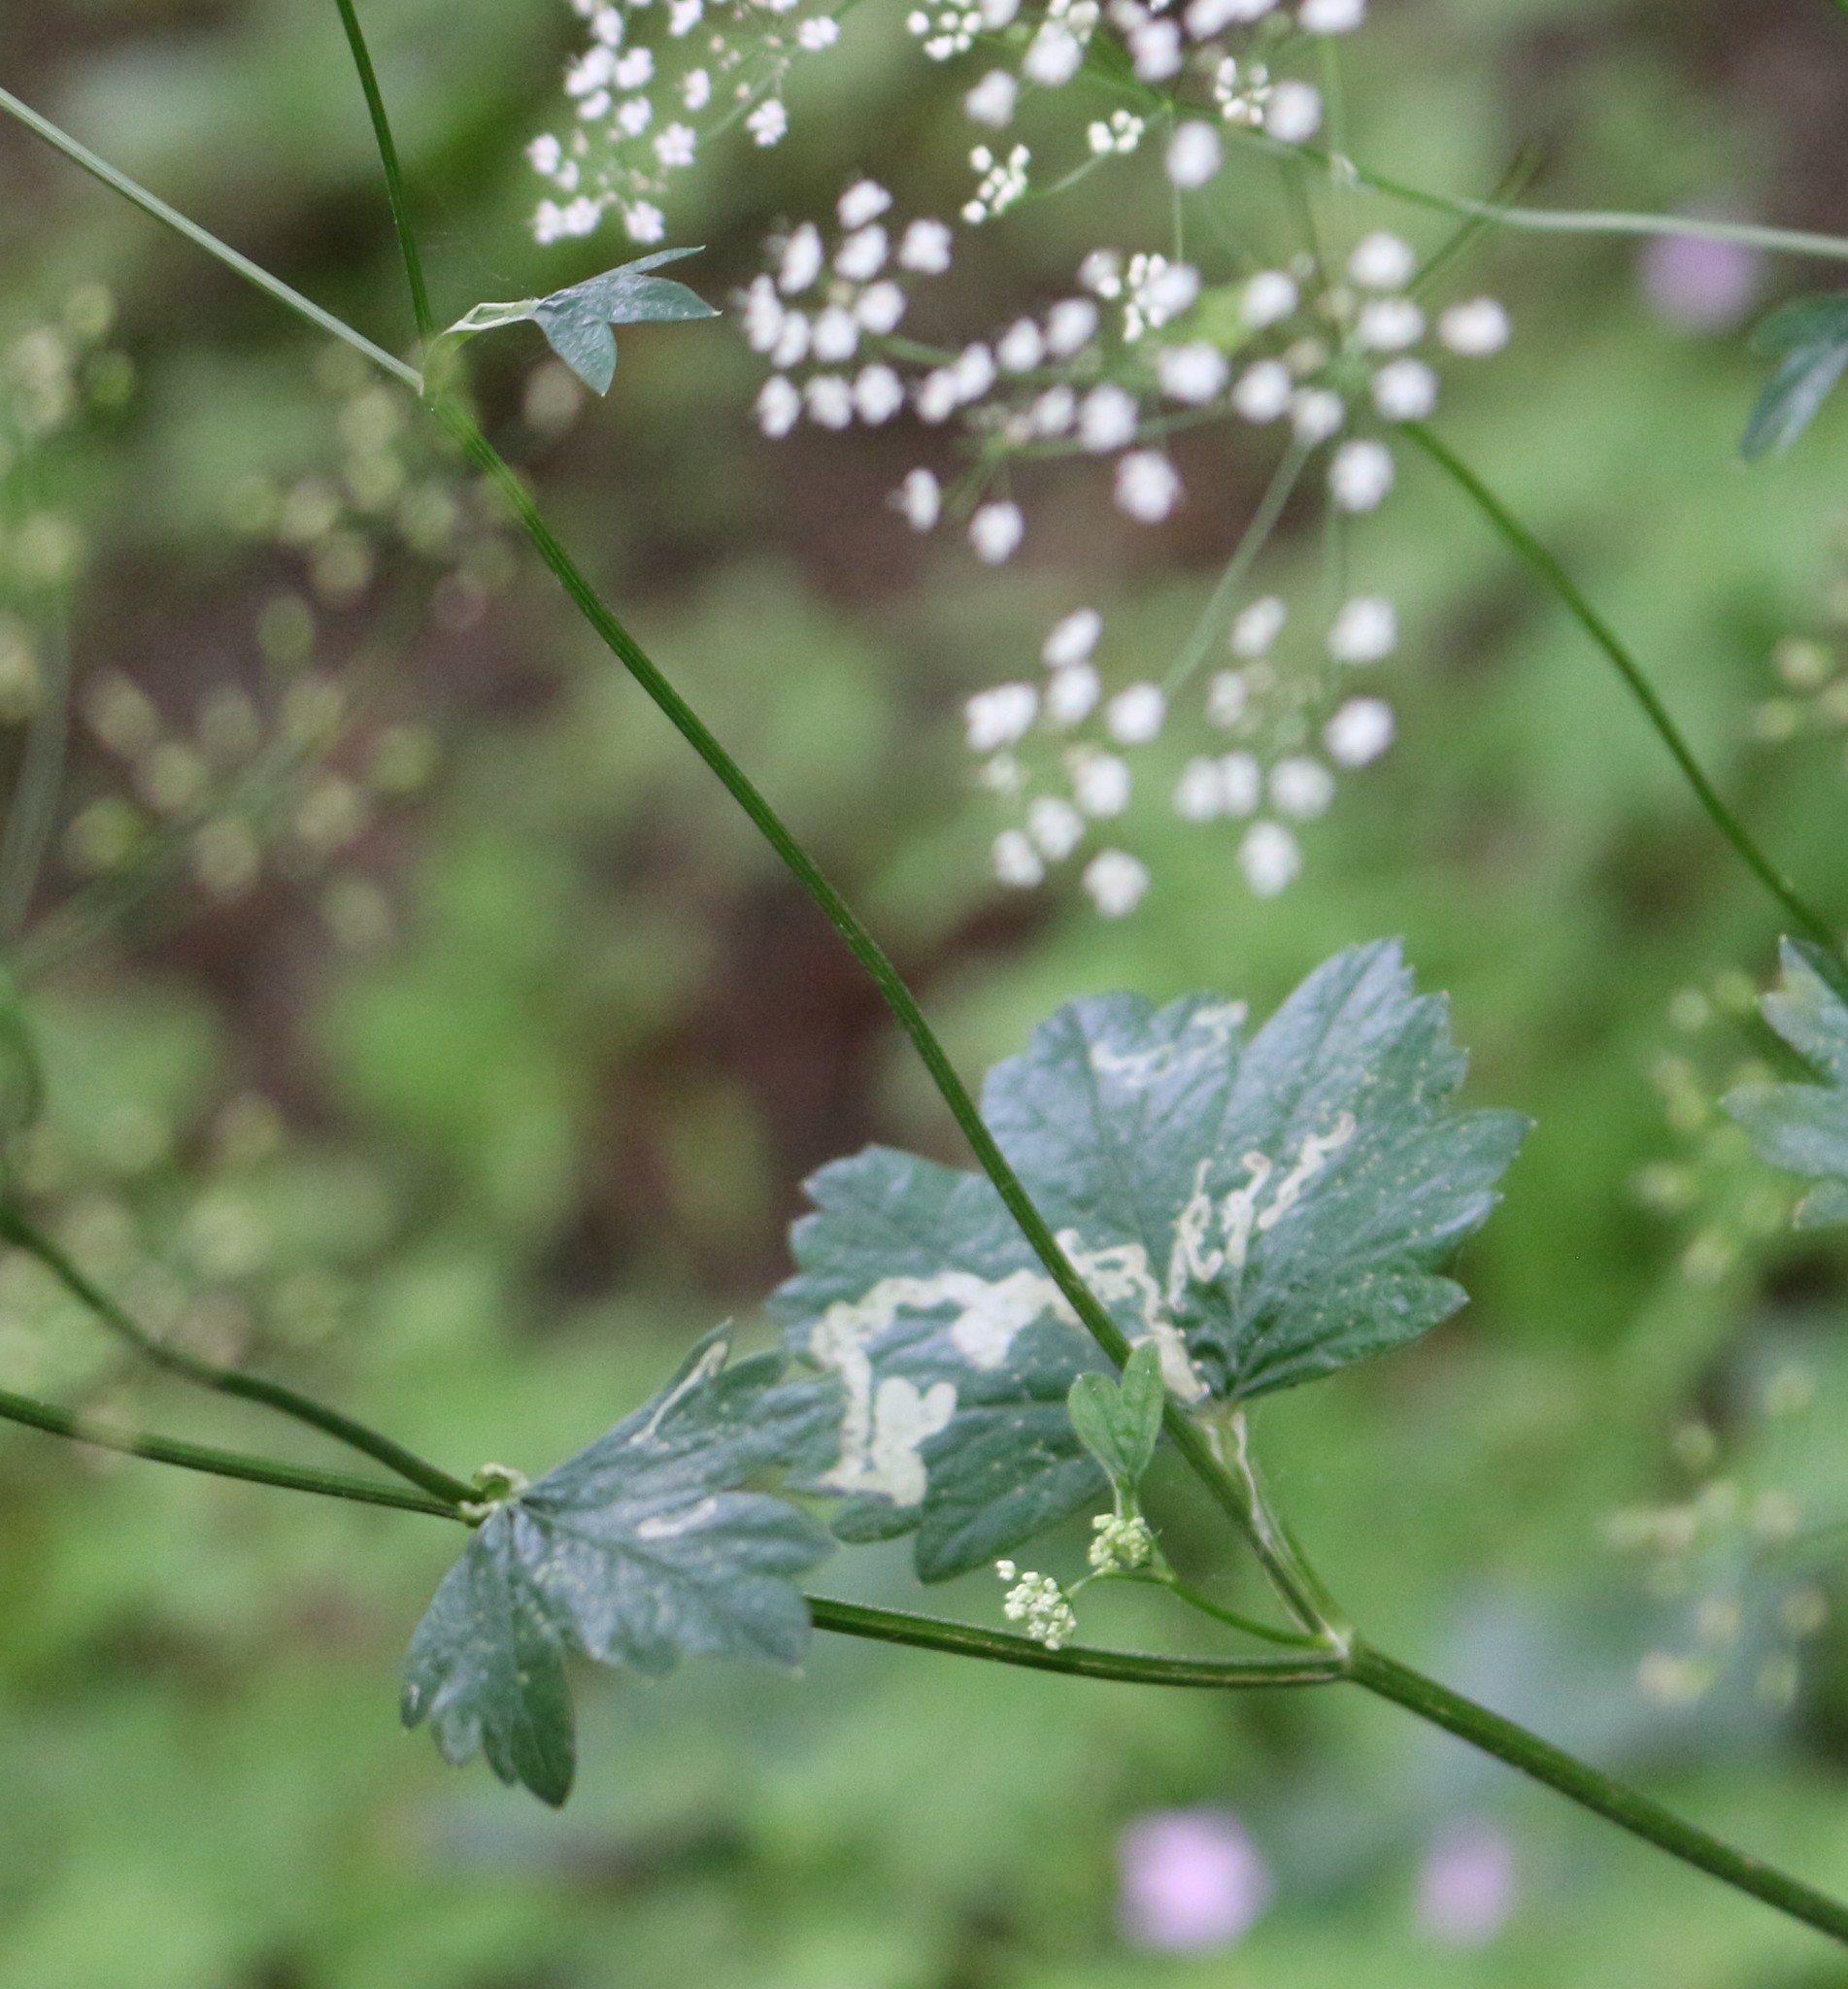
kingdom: Plantae
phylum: Tracheophyta
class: Magnoliopsida
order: Apiales
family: Apiaceae
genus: Pimpinella
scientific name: Pimpinella tripartita
